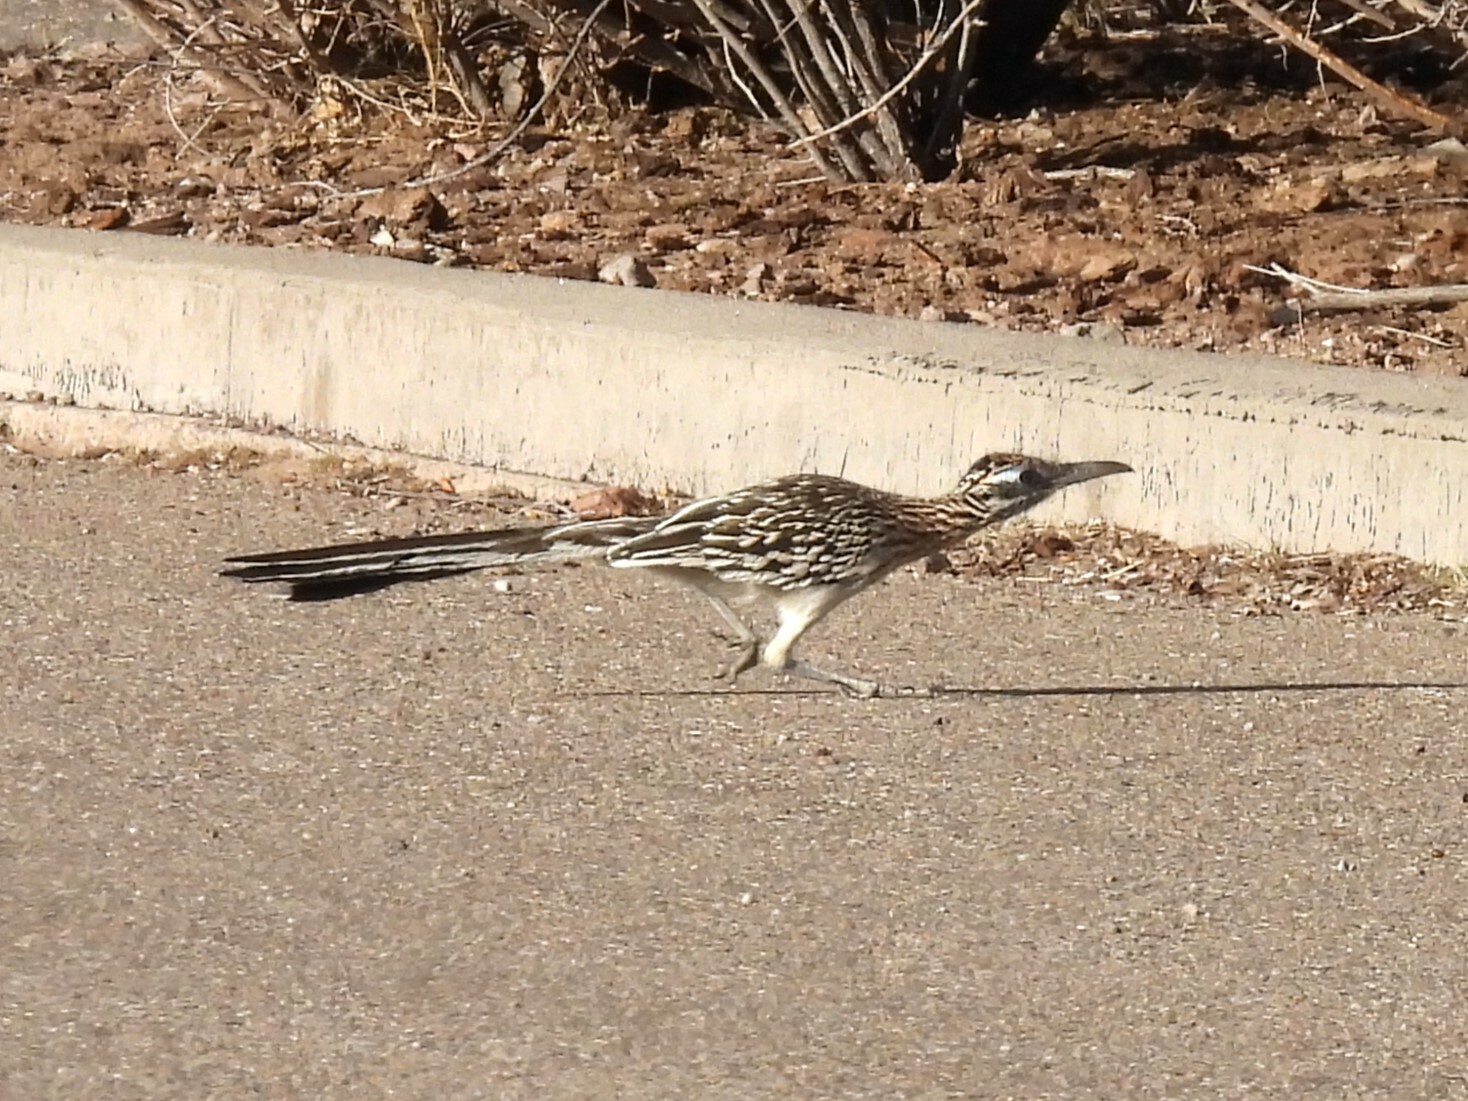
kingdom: Animalia
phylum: Chordata
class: Aves
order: Cuculiformes
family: Cuculidae
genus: Geococcyx
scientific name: Geococcyx californianus
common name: Greater roadrunner
